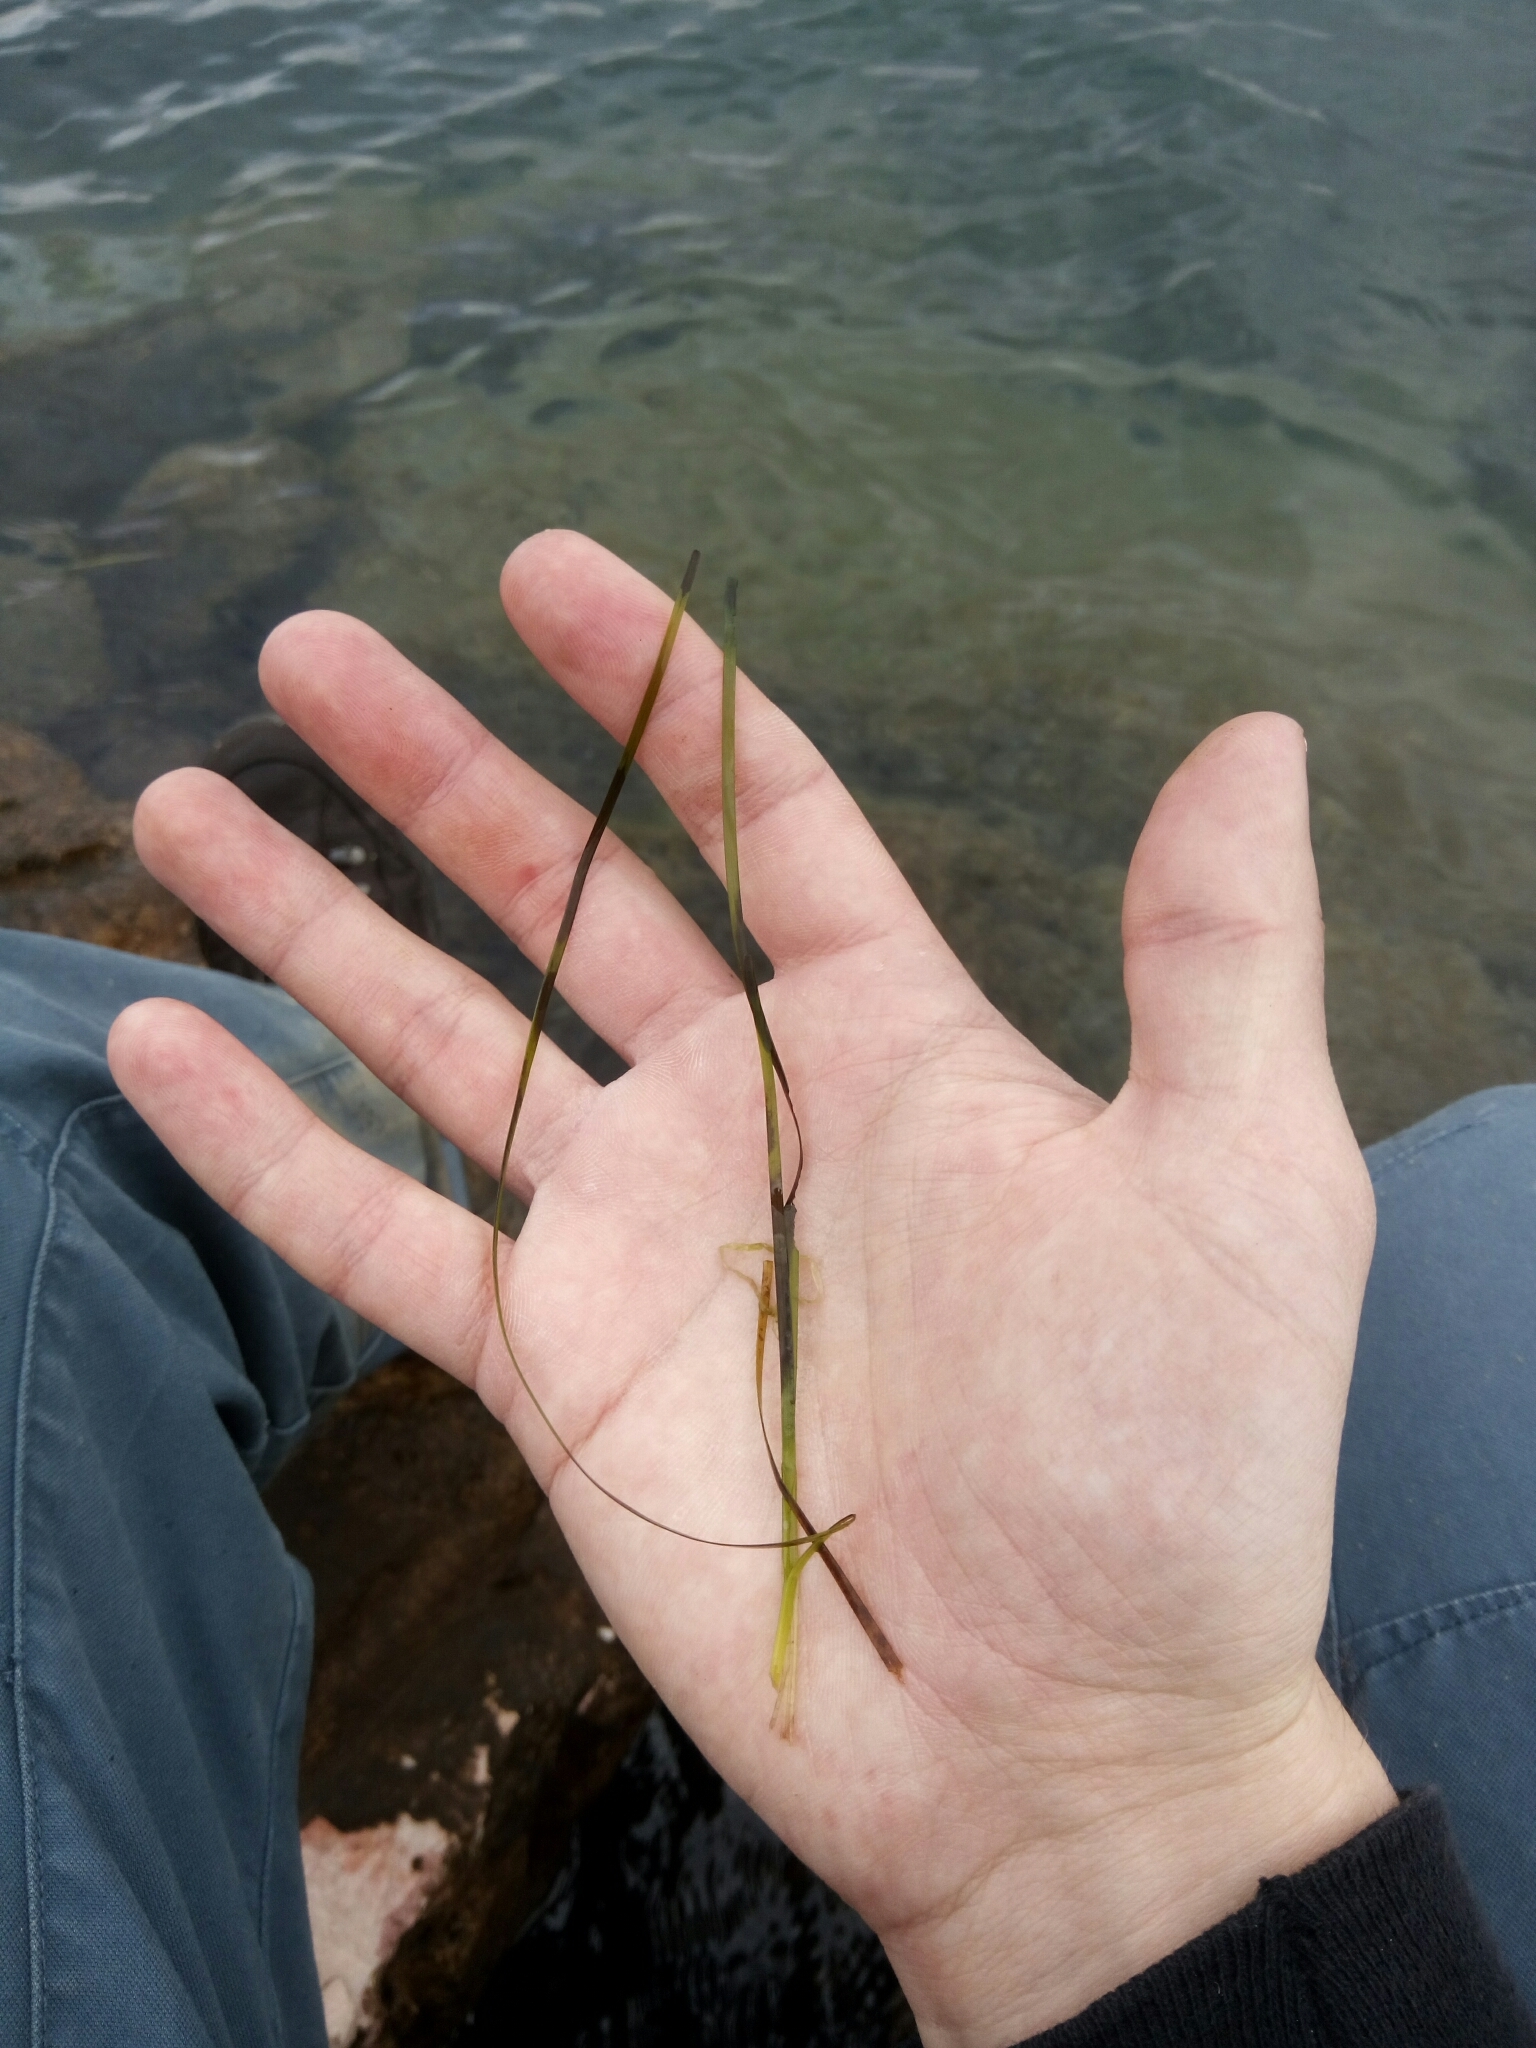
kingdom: Plantae
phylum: Tracheophyta
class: Liliopsida
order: Alismatales
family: Zosteraceae
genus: Zostera
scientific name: Zostera noltii
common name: Dwarf eelgrass
